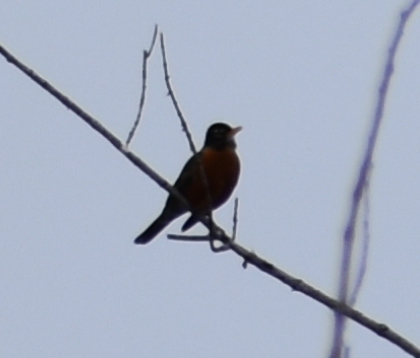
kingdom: Animalia
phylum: Chordata
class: Aves
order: Passeriformes
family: Turdidae
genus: Turdus
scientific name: Turdus migratorius
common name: American robin
